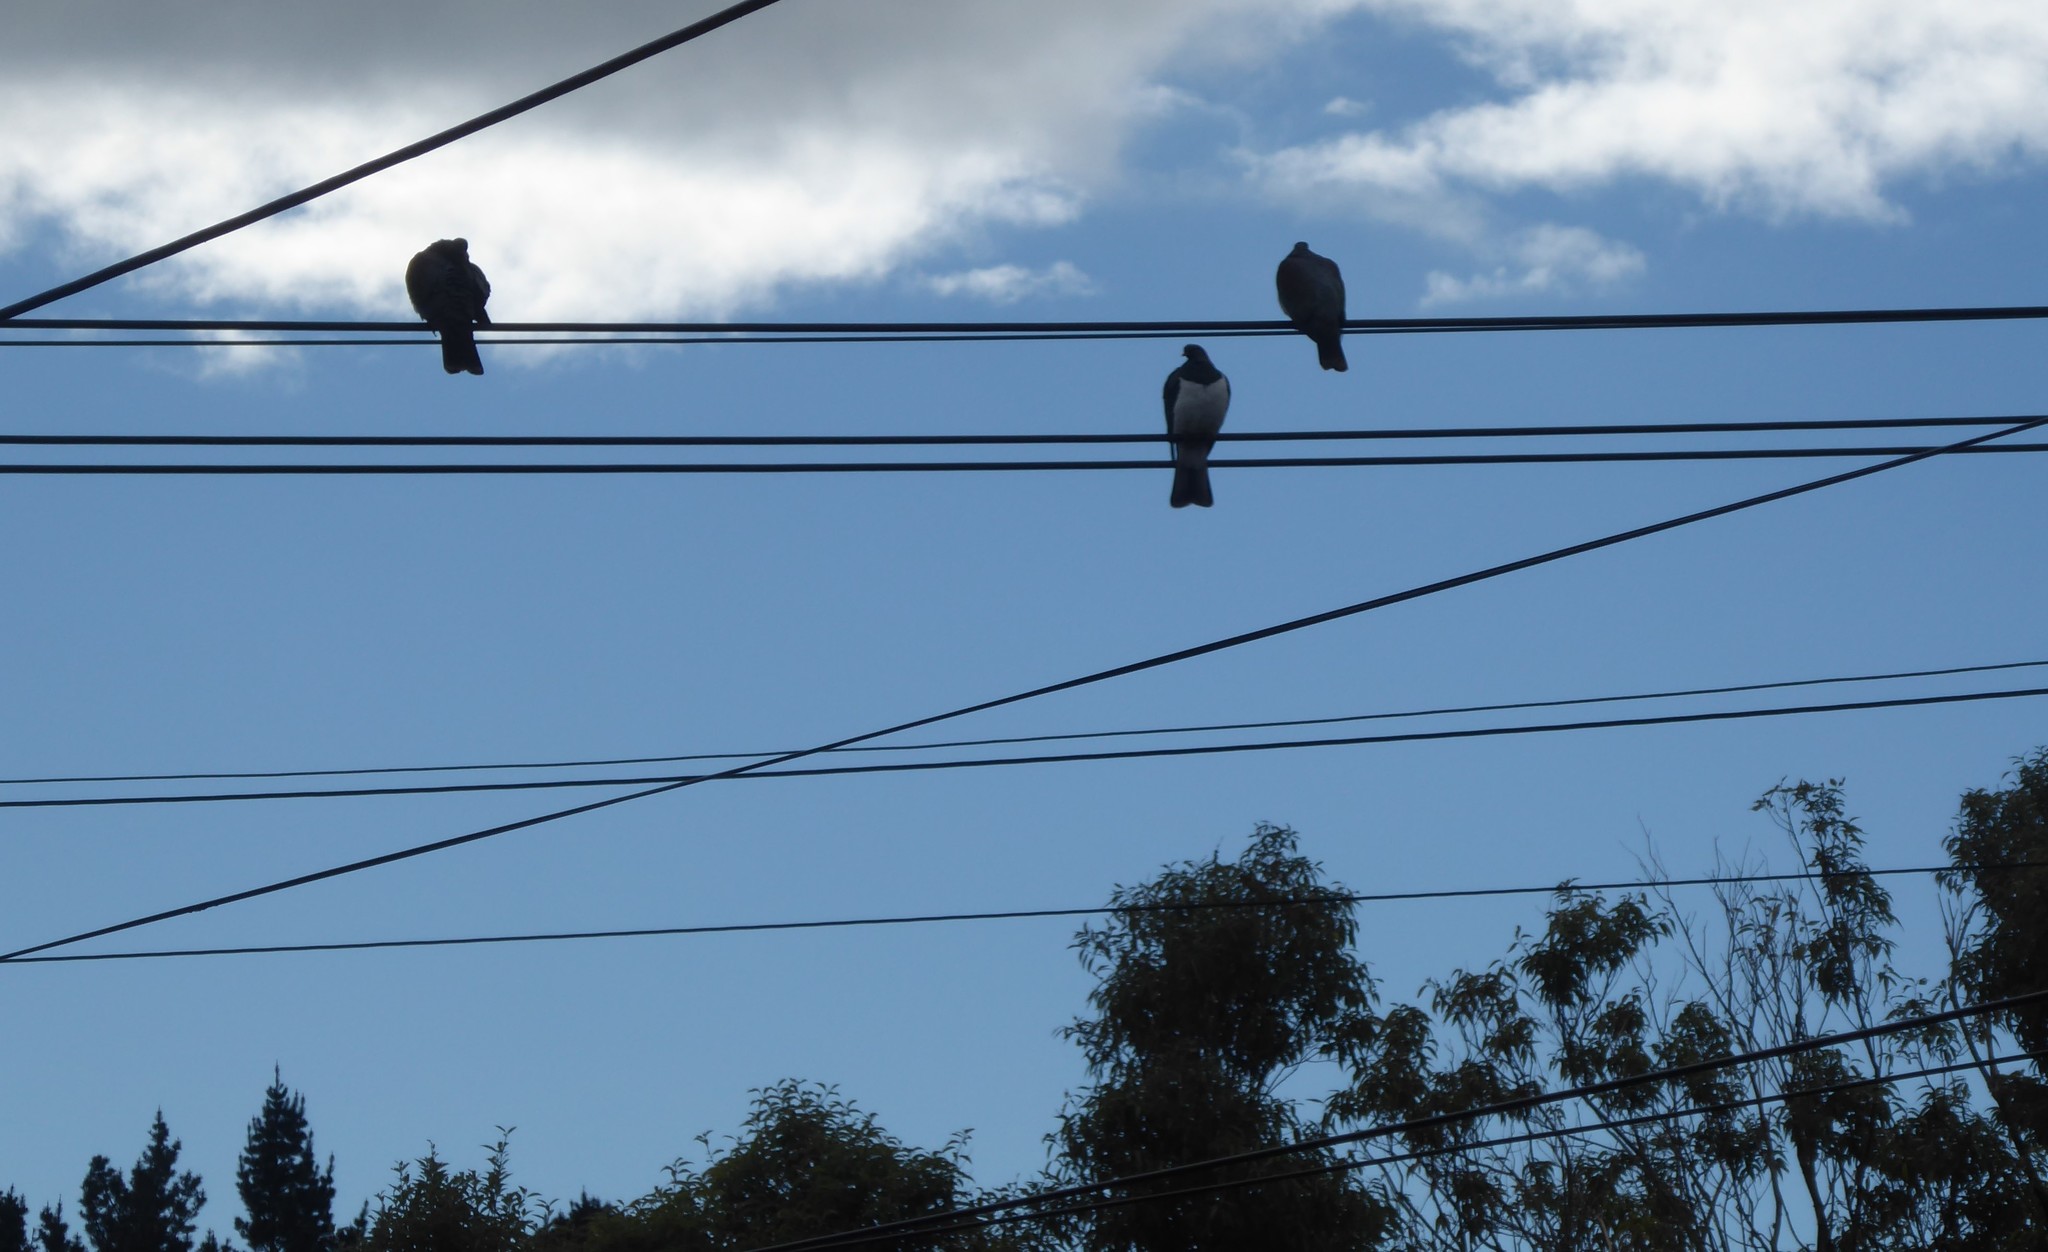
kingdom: Animalia
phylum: Chordata
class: Aves
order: Columbiformes
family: Columbidae
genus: Hemiphaga
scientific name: Hemiphaga novaeseelandiae
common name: New zealand pigeon
